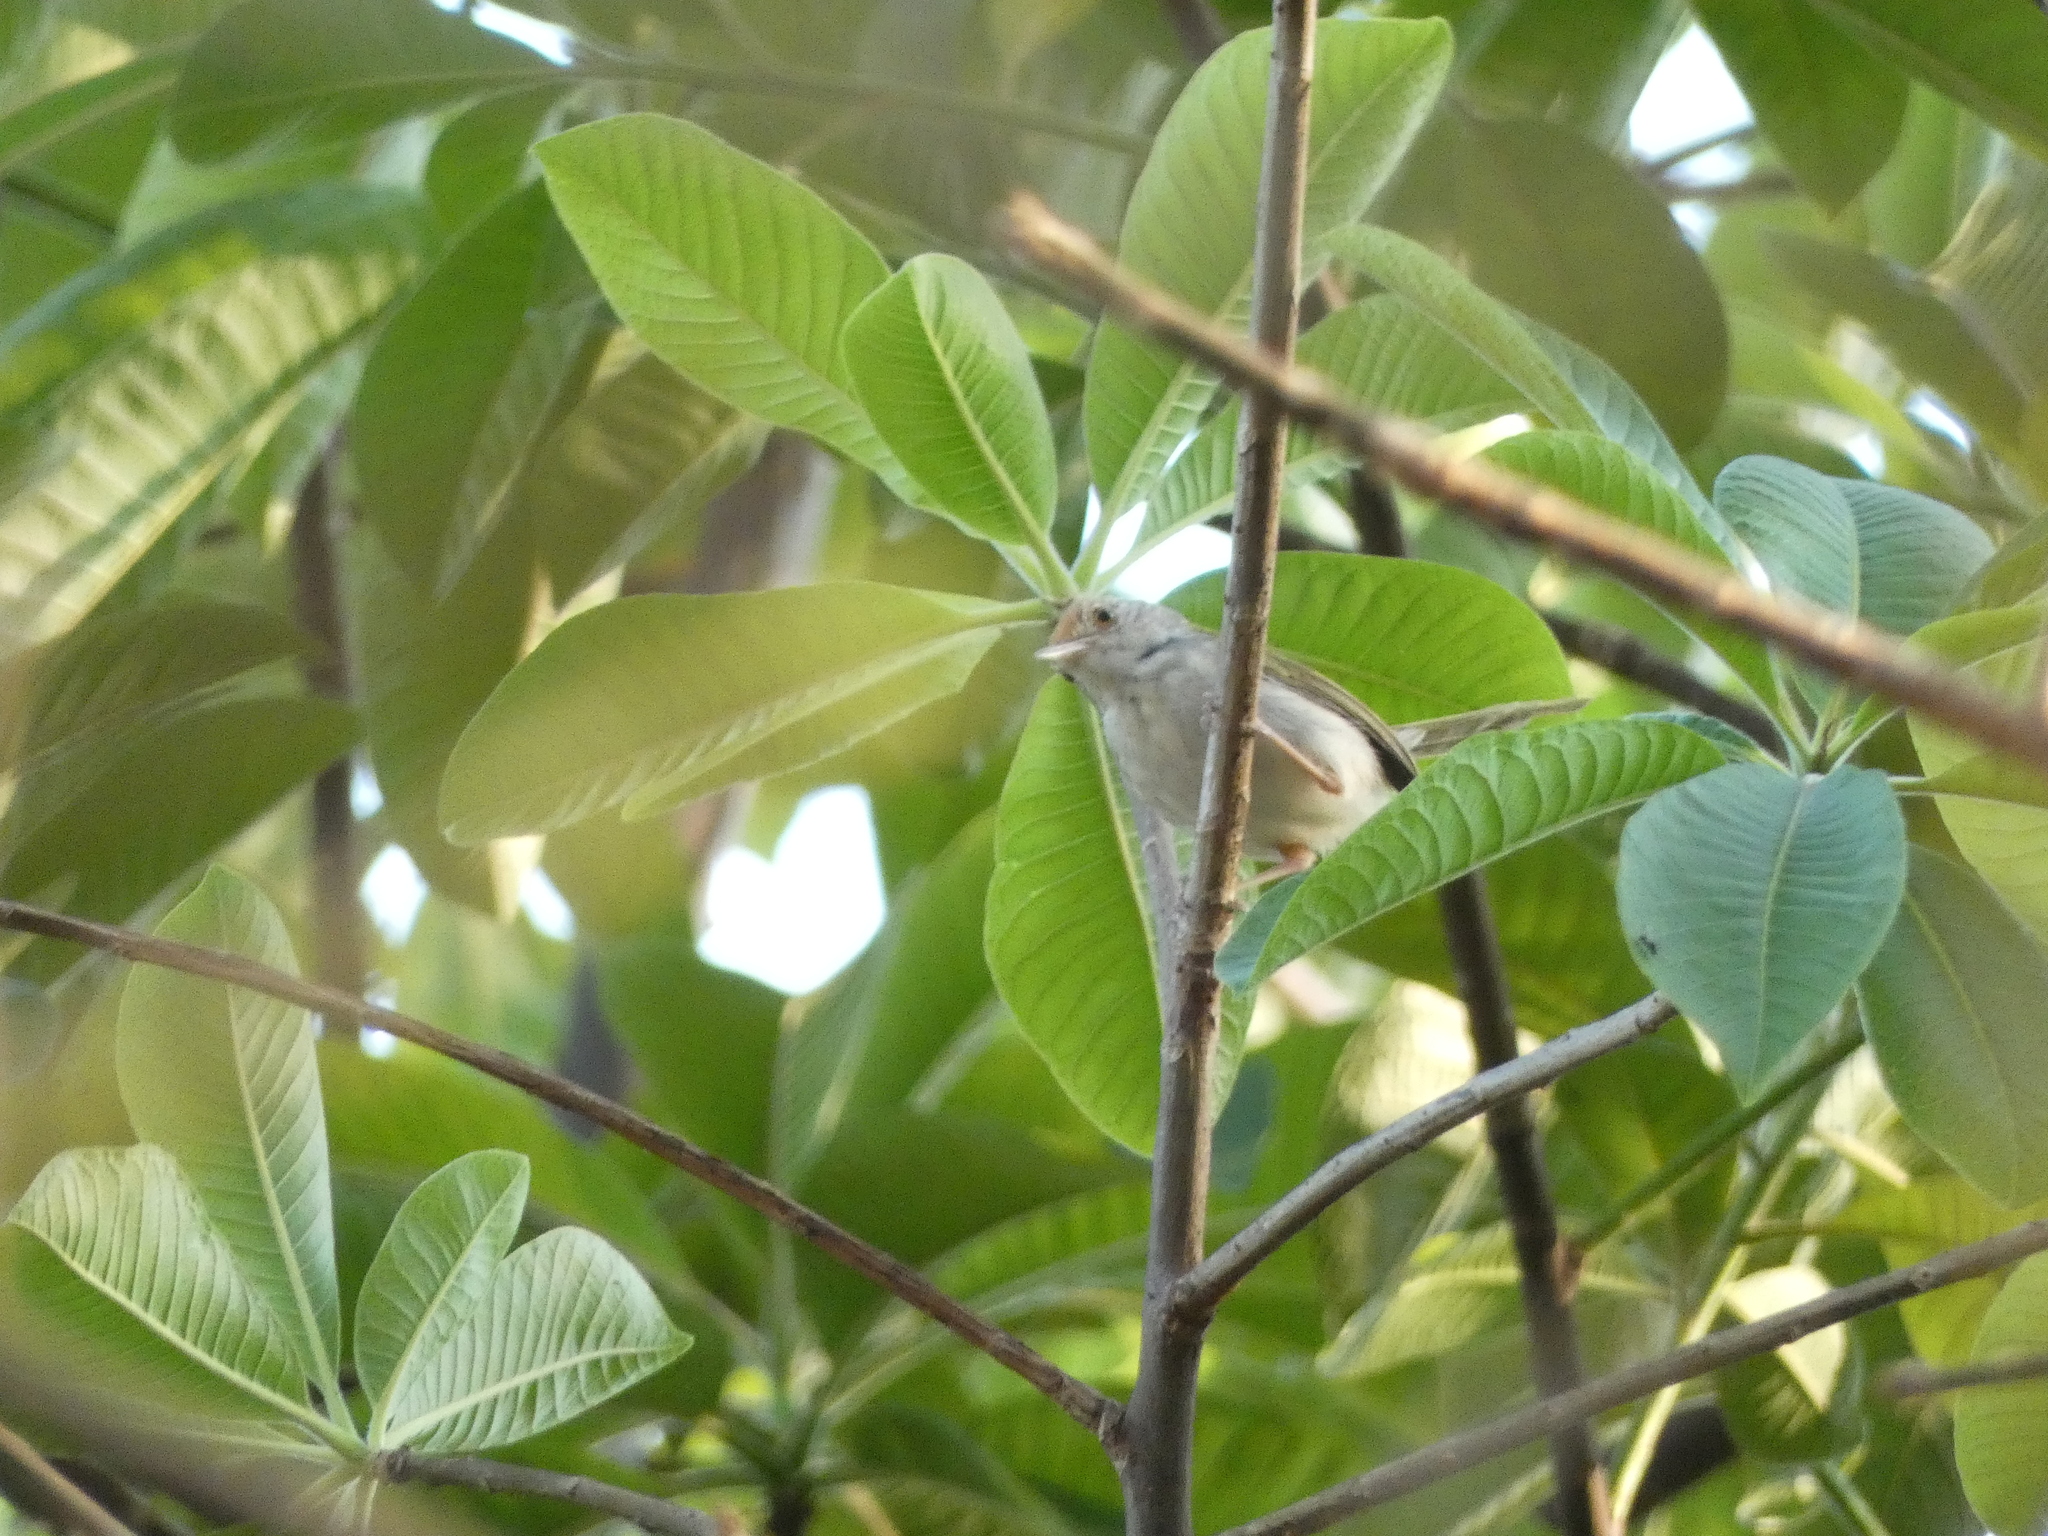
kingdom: Animalia
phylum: Chordata
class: Aves
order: Passeriformes
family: Cisticolidae
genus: Orthotomus
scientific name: Orthotomus sutorius
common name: Common tailorbird
